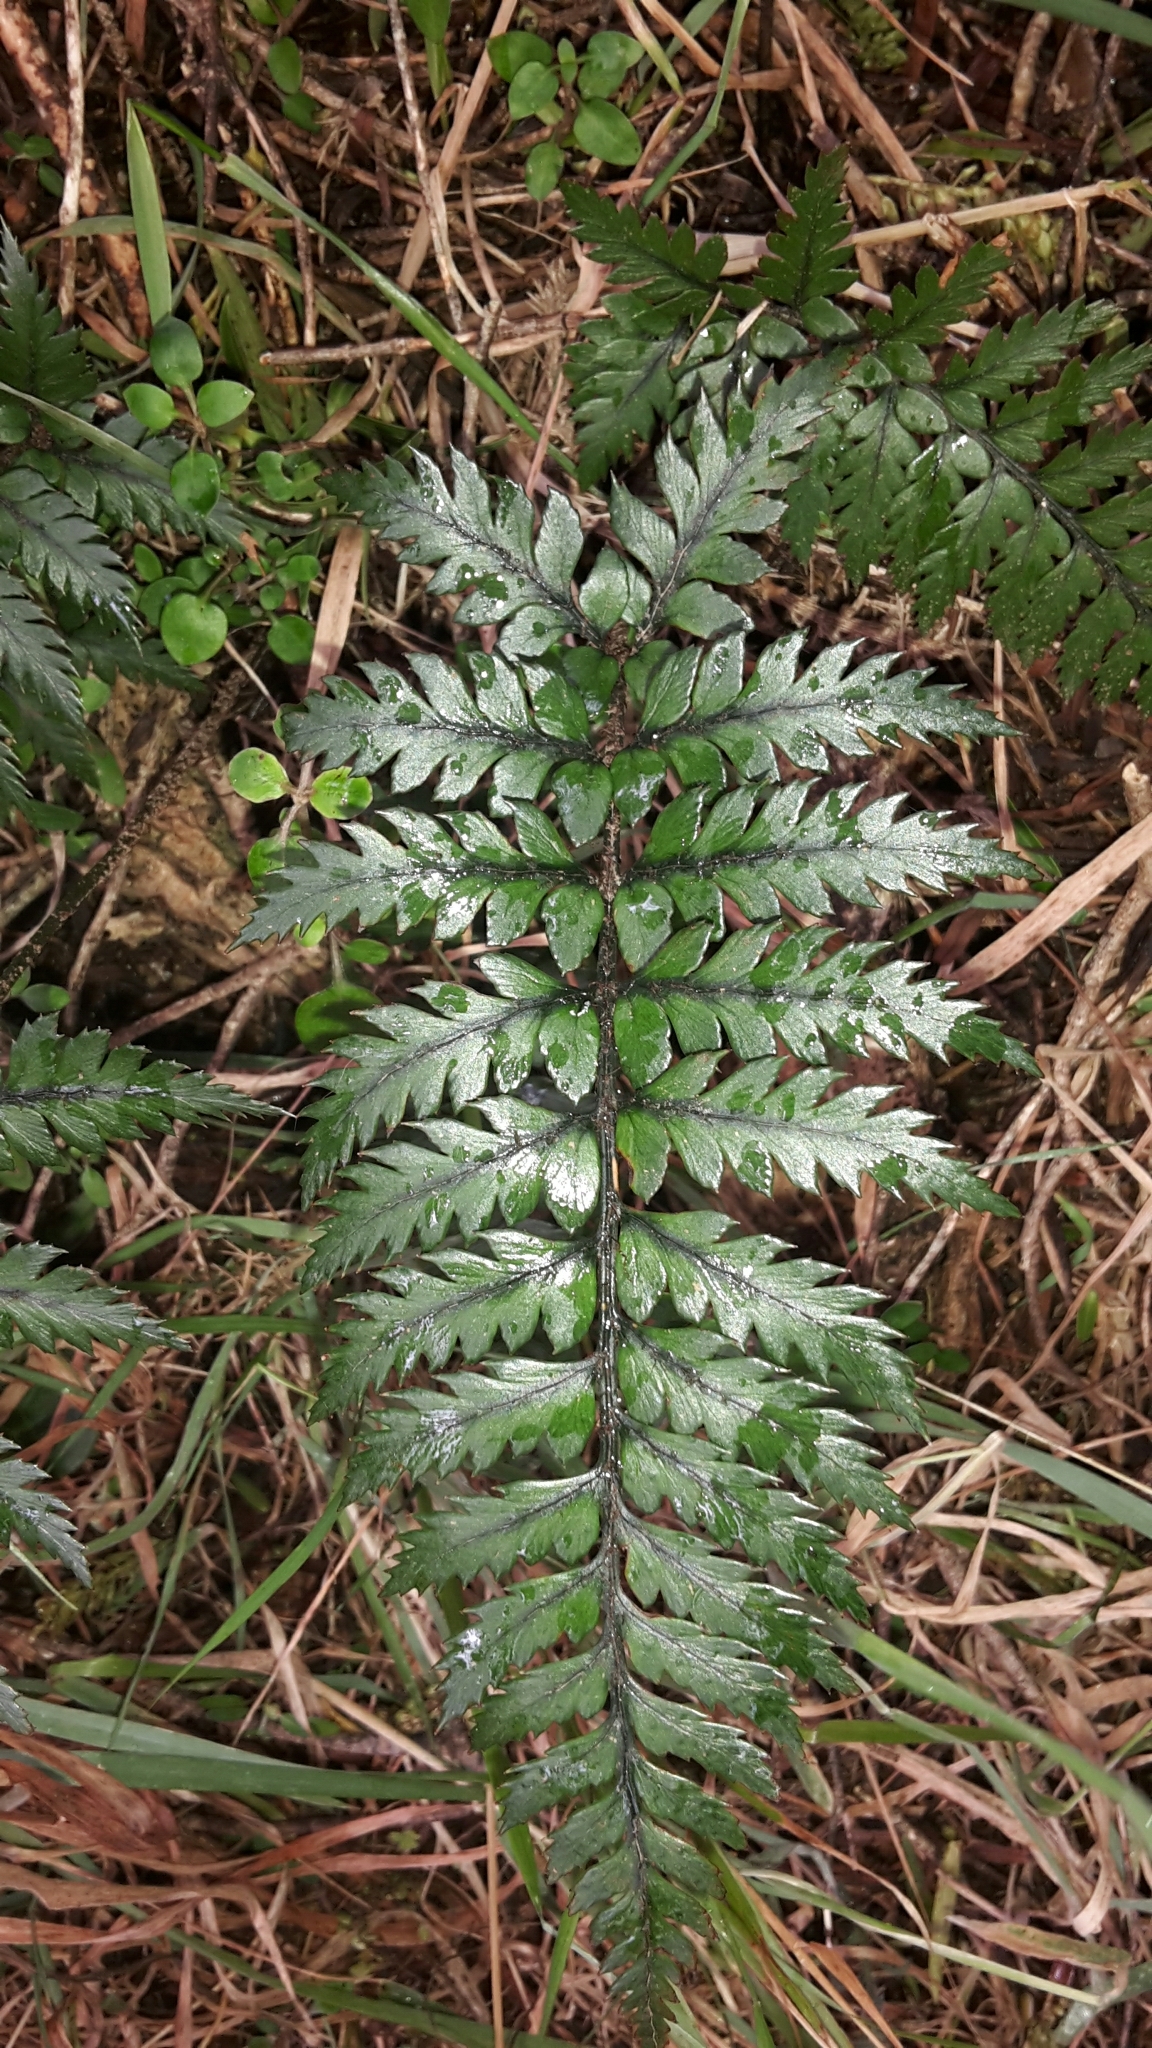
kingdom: Plantae
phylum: Tracheophyta
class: Polypodiopsida
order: Polypodiales
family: Dryopteridaceae
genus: Polystichum
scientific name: Polystichum neozelandicum
